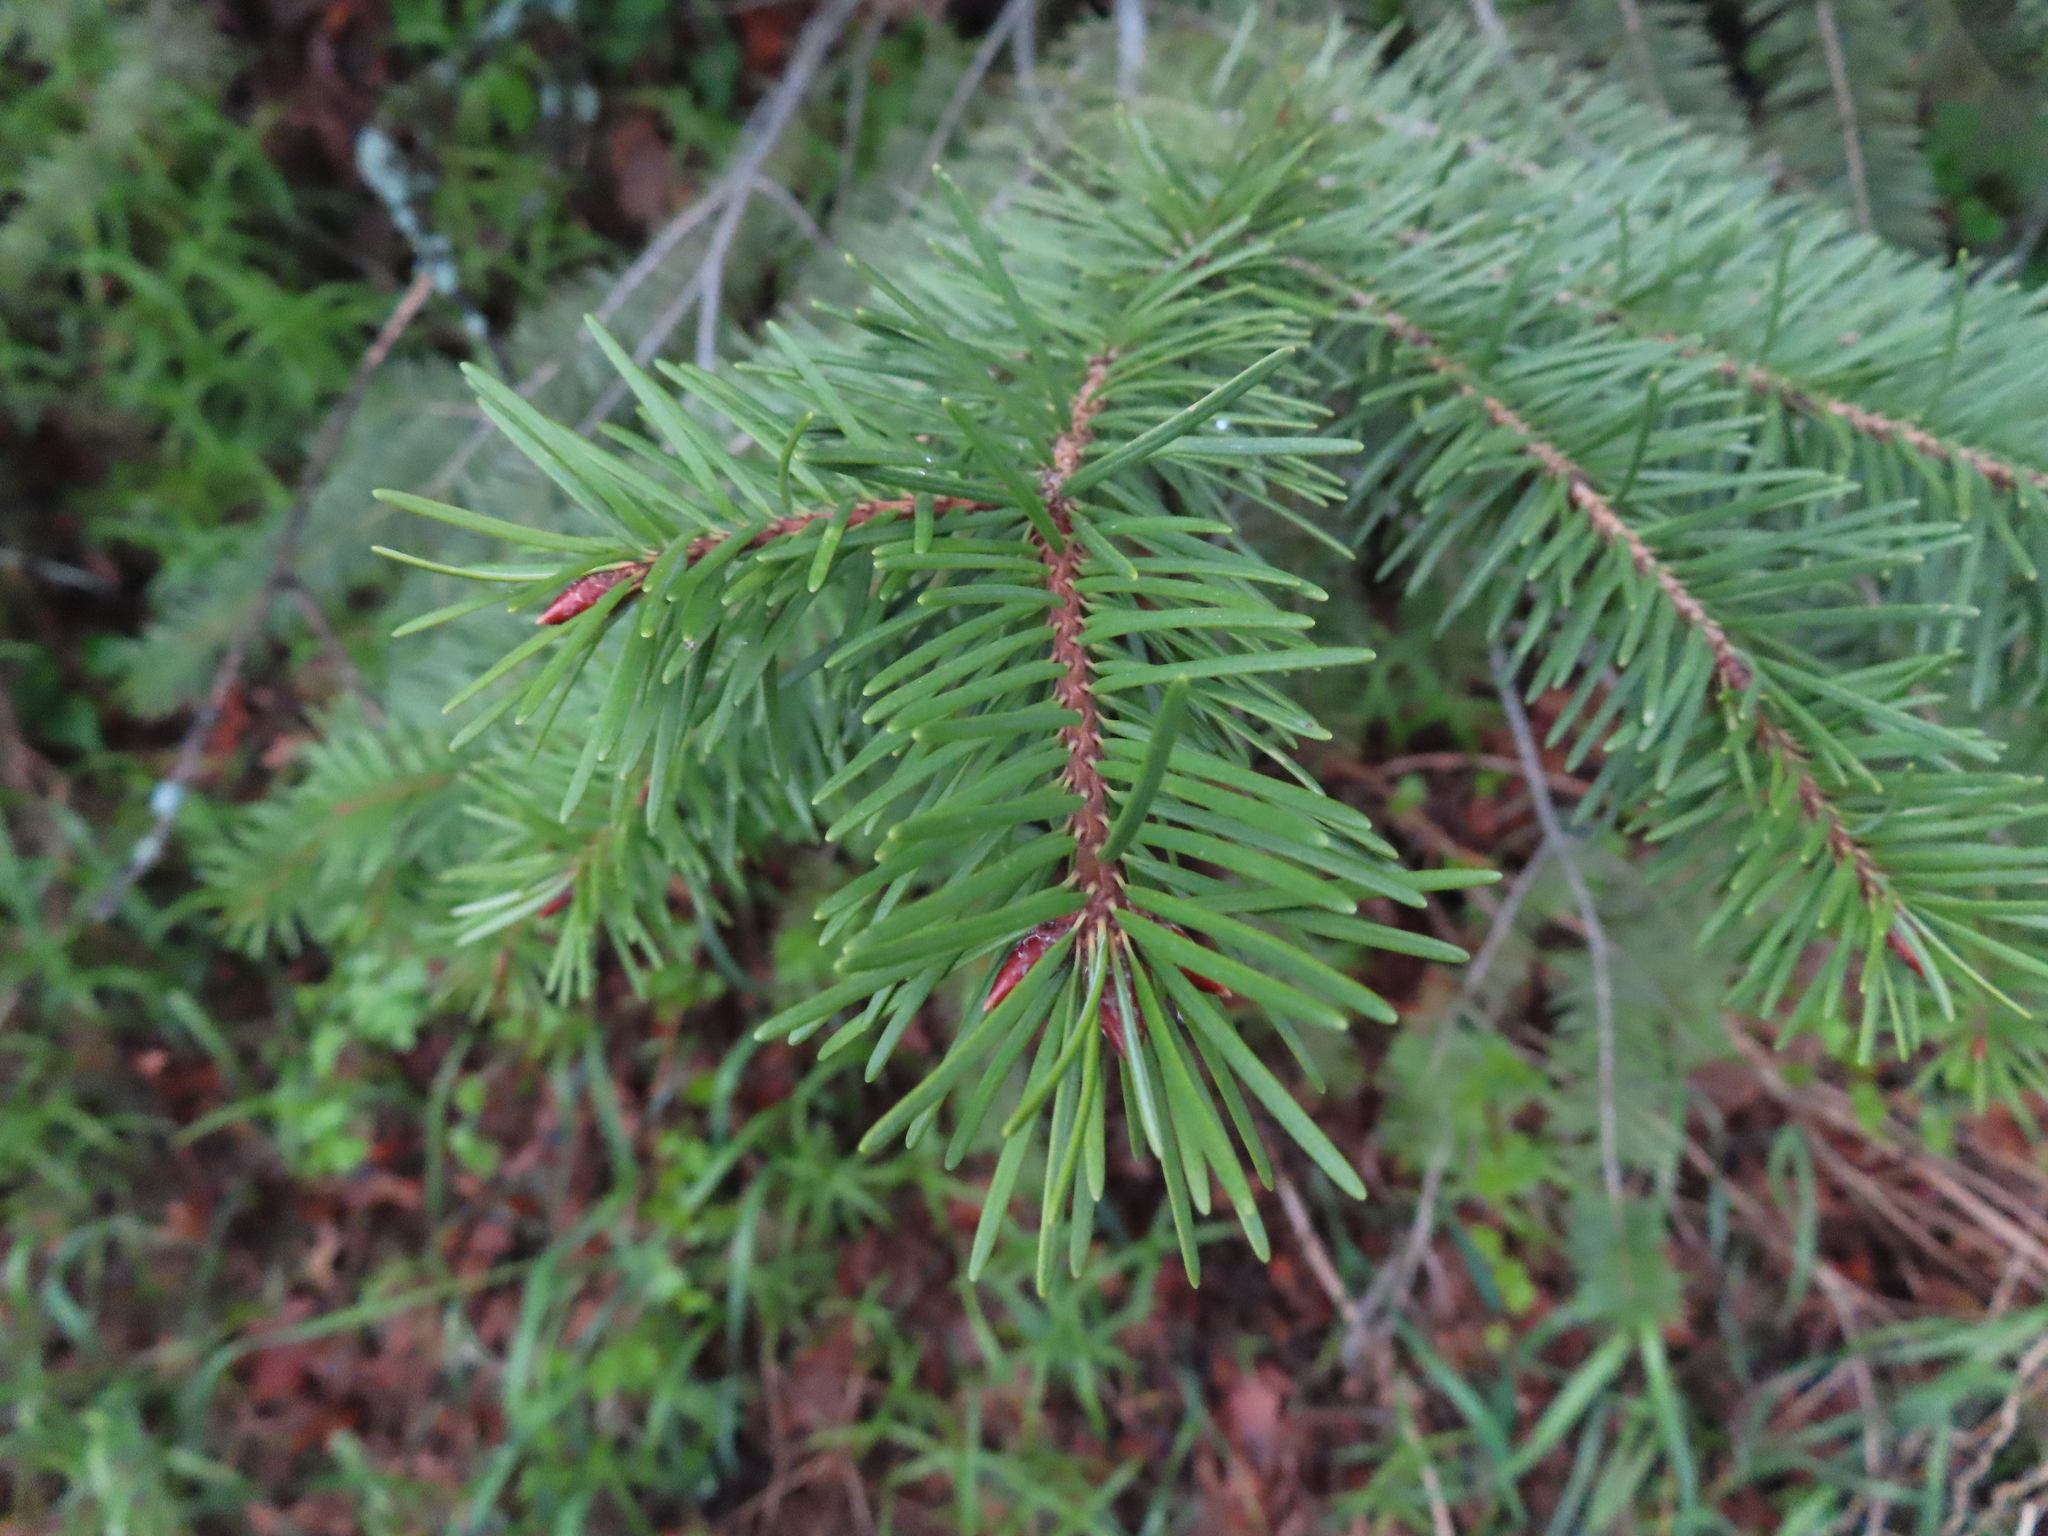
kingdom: Plantae
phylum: Tracheophyta
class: Pinopsida
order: Pinales
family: Pinaceae
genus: Pseudotsuga
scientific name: Pseudotsuga menziesii
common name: Douglas fir
